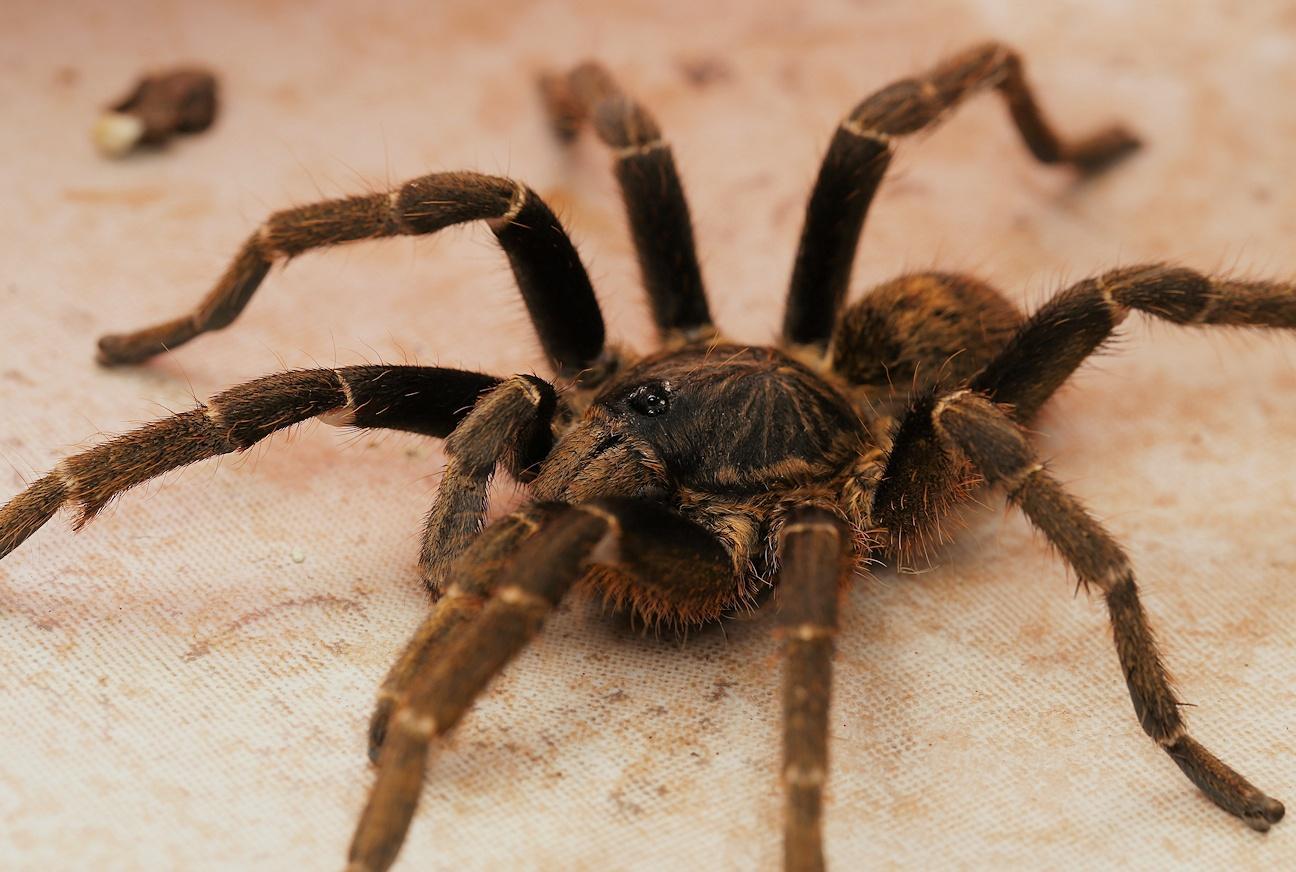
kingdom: Animalia
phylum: Arthropoda
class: Arachnida
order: Araneae
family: Theraphosidae
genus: Idiothele
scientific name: Idiothele nigrofulva
